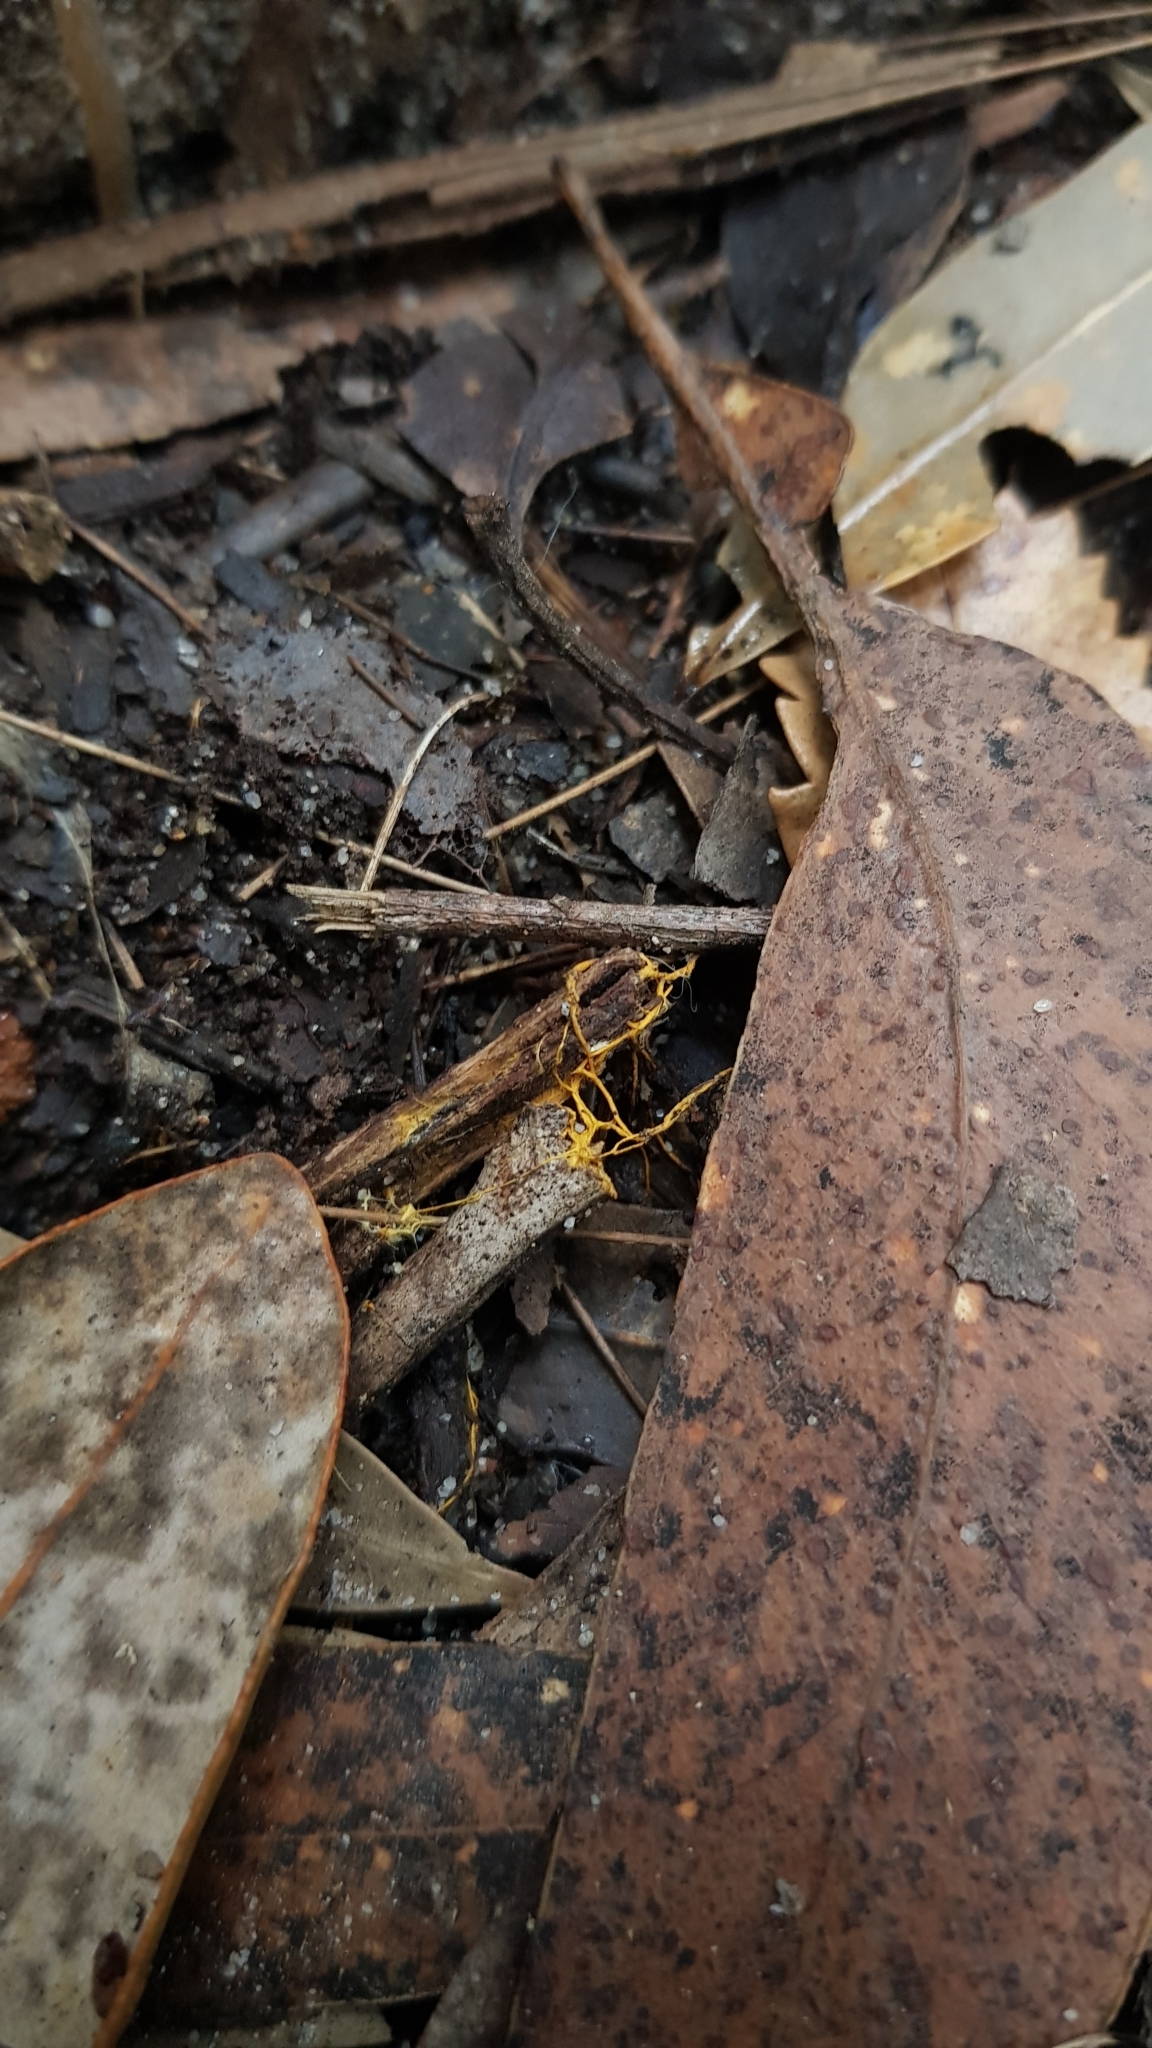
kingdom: Fungi
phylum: Basidiomycota
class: Agaricomycetes
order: Polyporales
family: Phanerochaetaceae
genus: Rhizochaete
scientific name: Rhizochaete filamentosa
